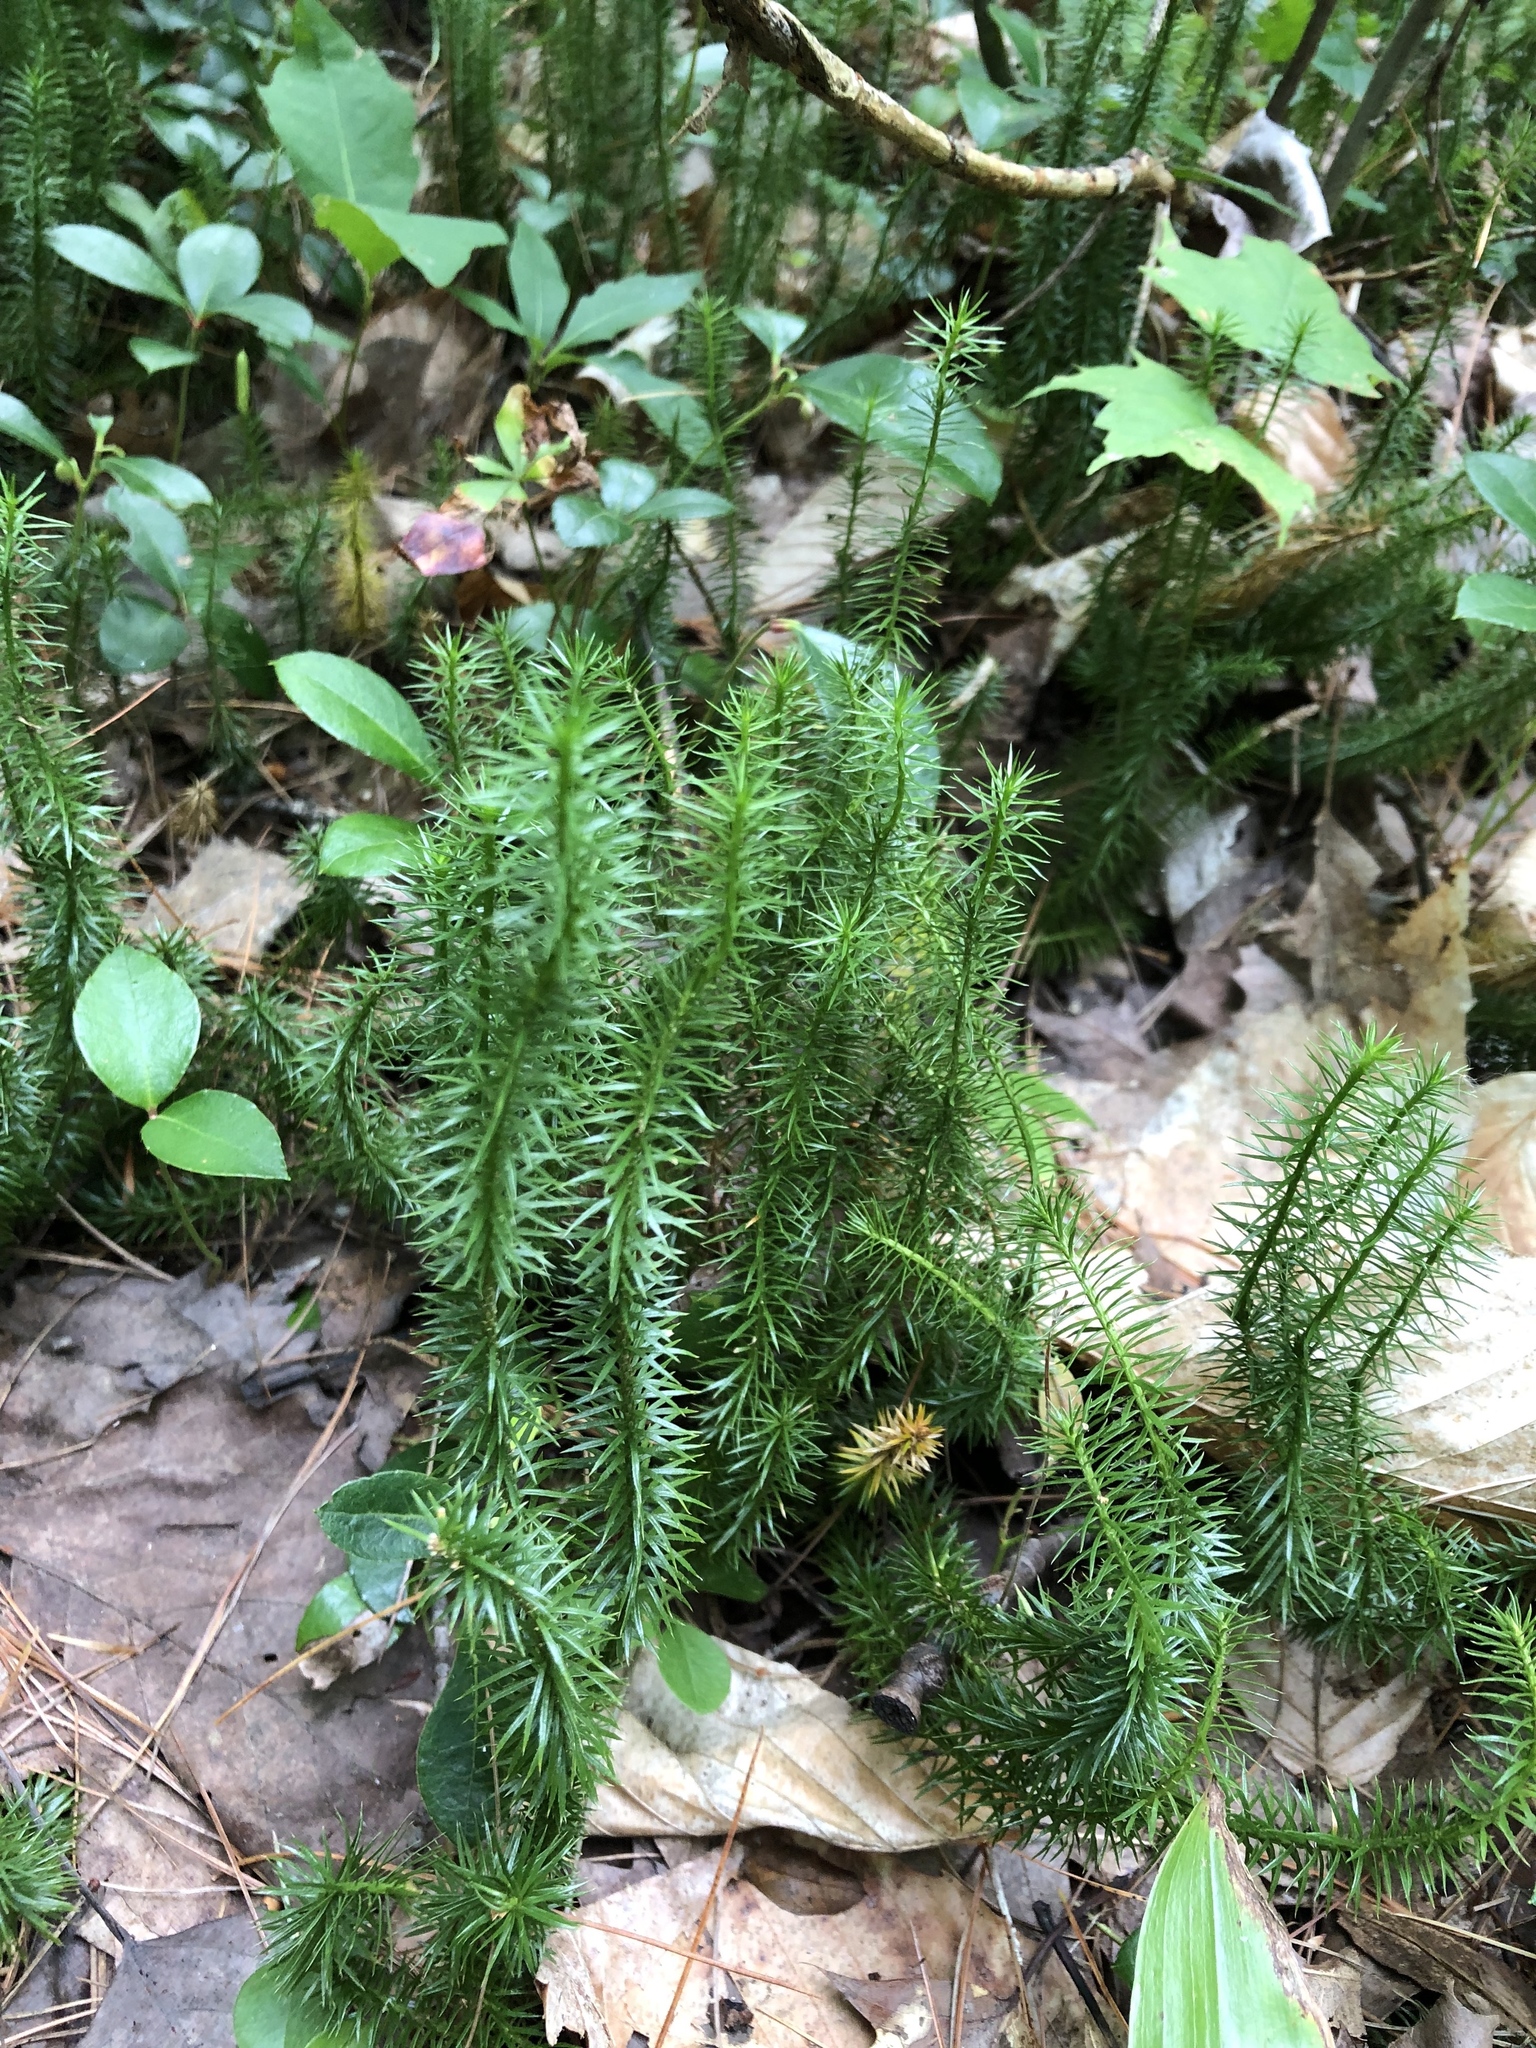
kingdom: Plantae
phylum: Tracheophyta
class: Lycopodiopsida
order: Lycopodiales
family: Lycopodiaceae
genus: Spinulum
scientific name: Spinulum annotinum
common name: Interrupted club-moss
